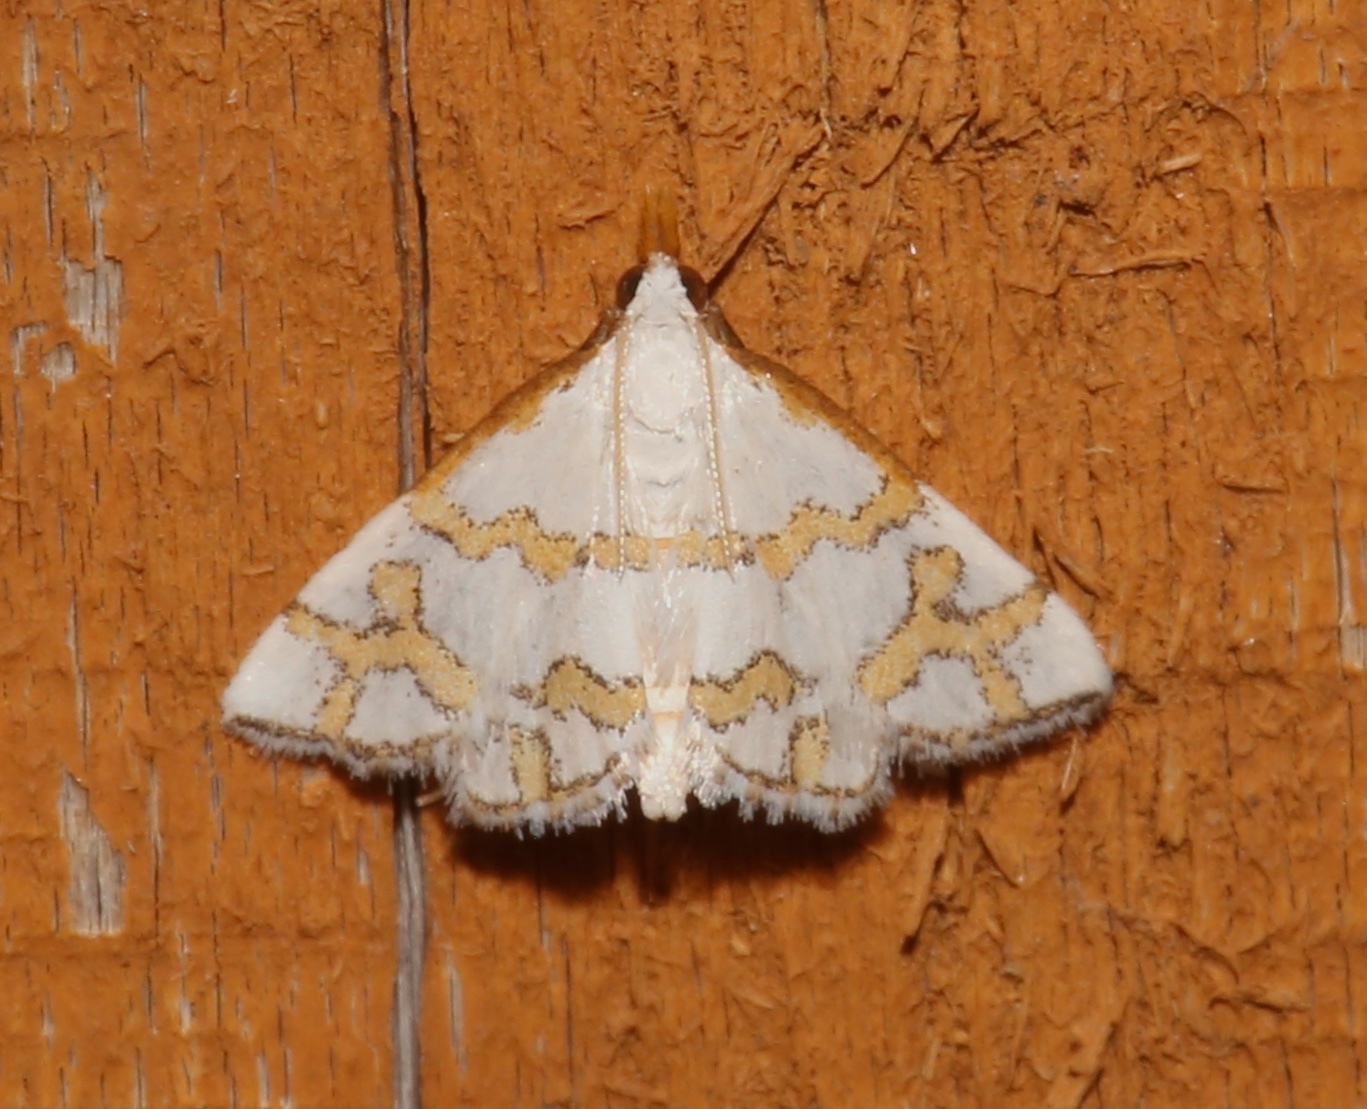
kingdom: Animalia
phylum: Arthropoda
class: Insecta
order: Lepidoptera
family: Crambidae
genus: Leptosteges
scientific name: Leptosteges
